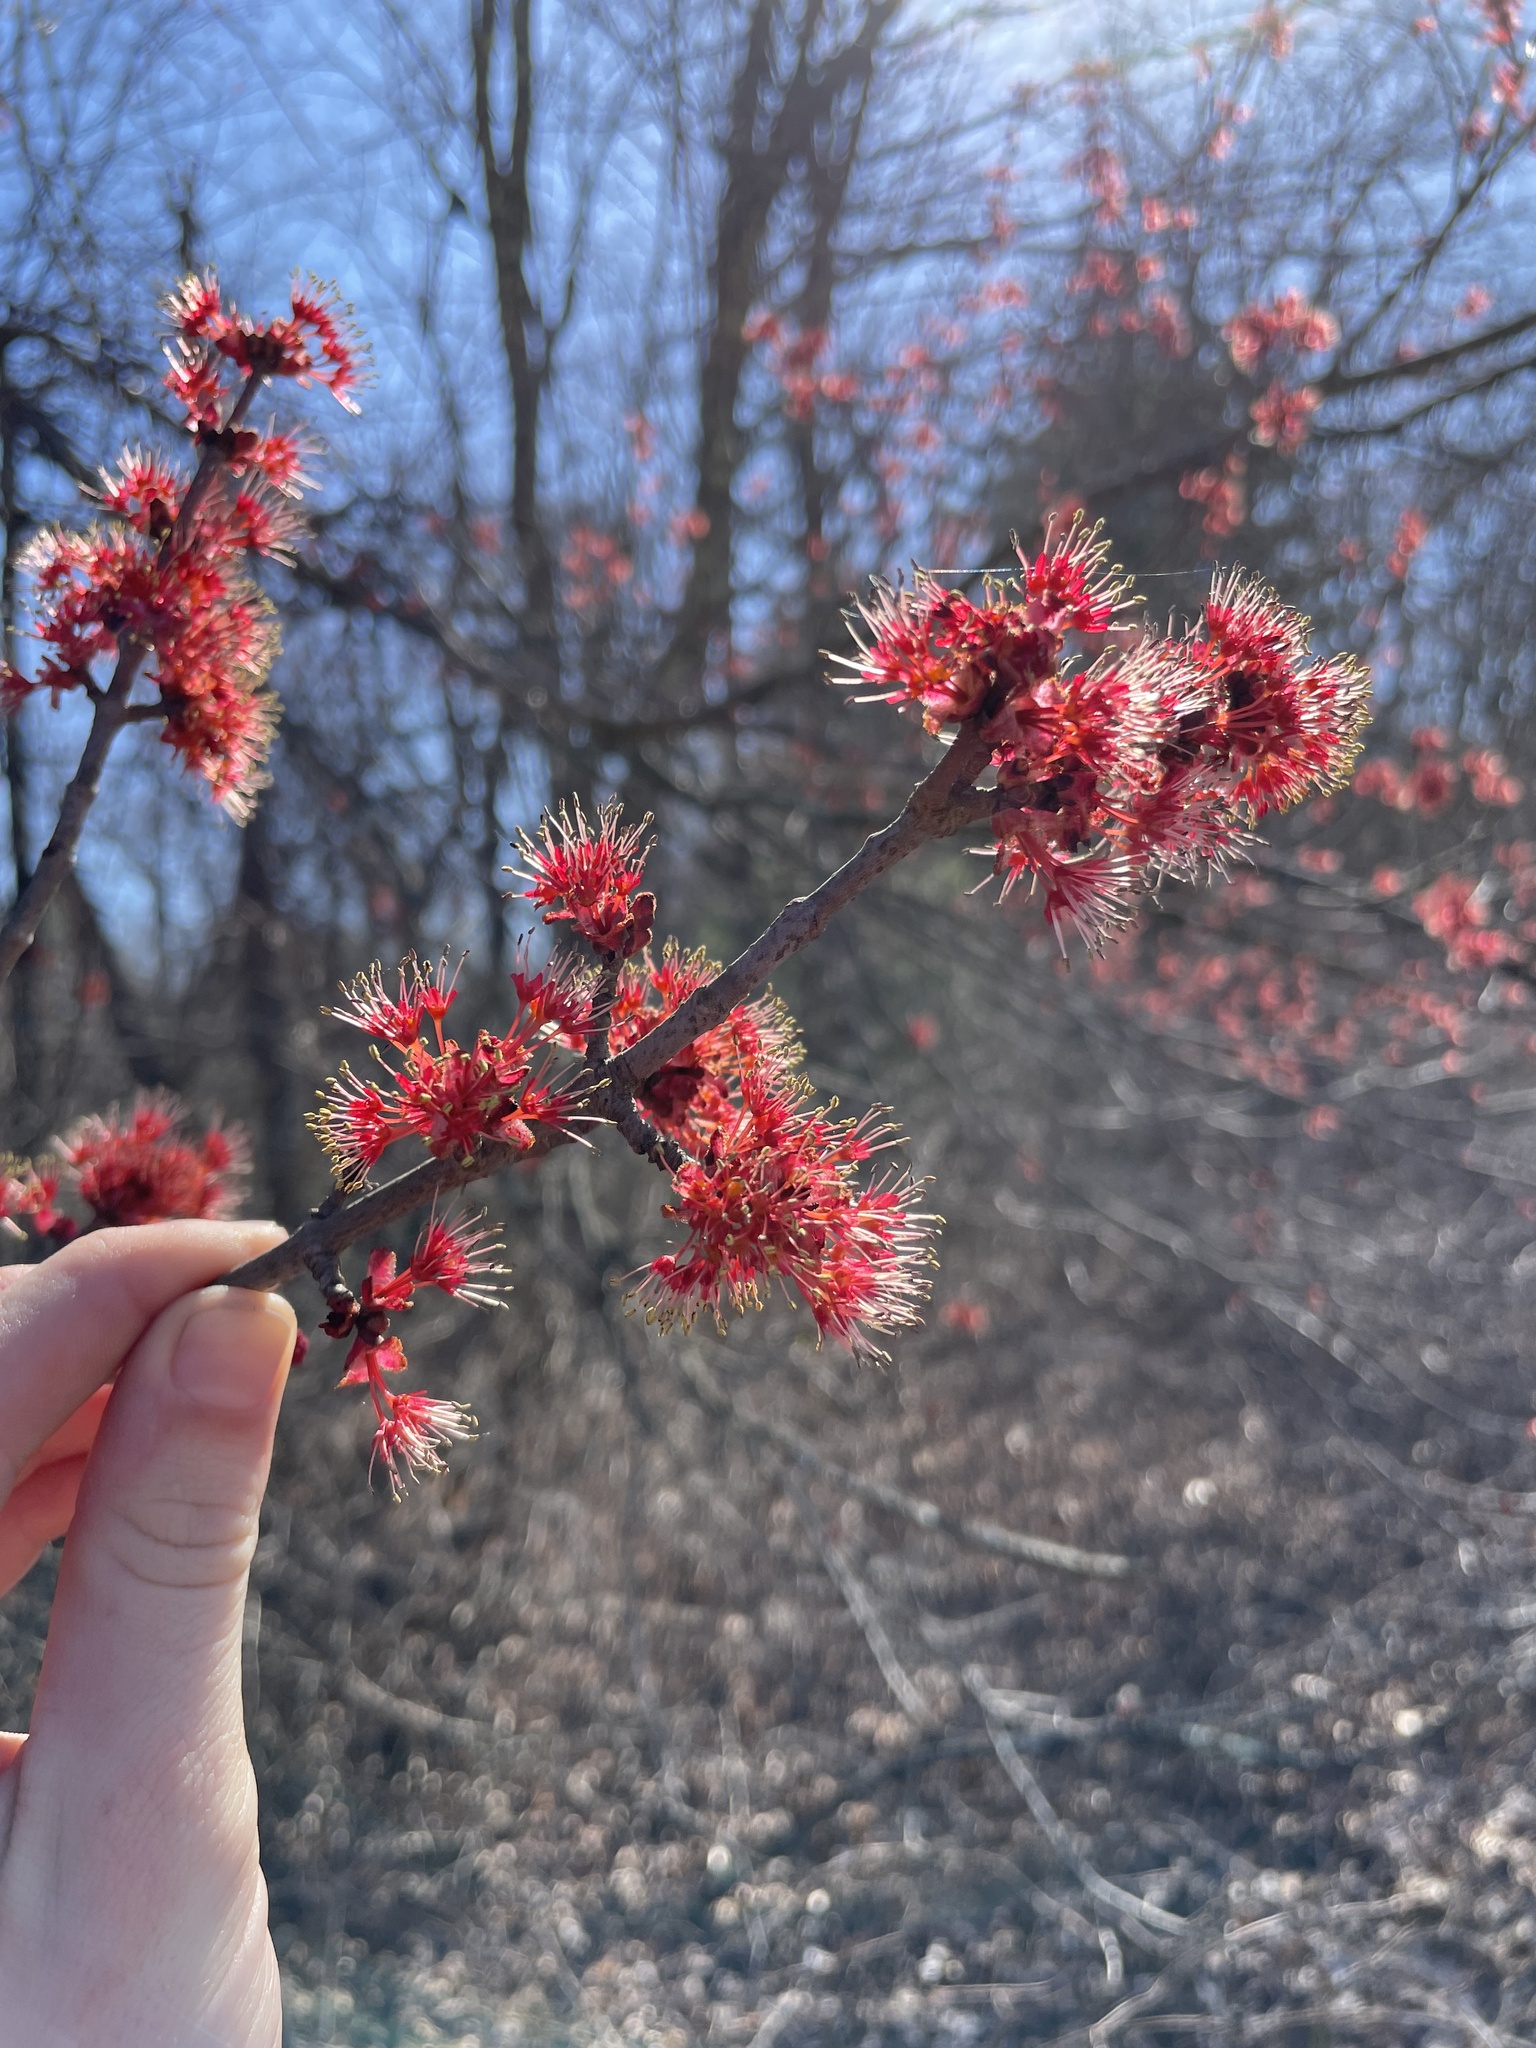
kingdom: Plantae
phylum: Tracheophyta
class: Magnoliopsida
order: Sapindales
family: Sapindaceae
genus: Acer
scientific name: Acer rubrum
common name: Red maple
